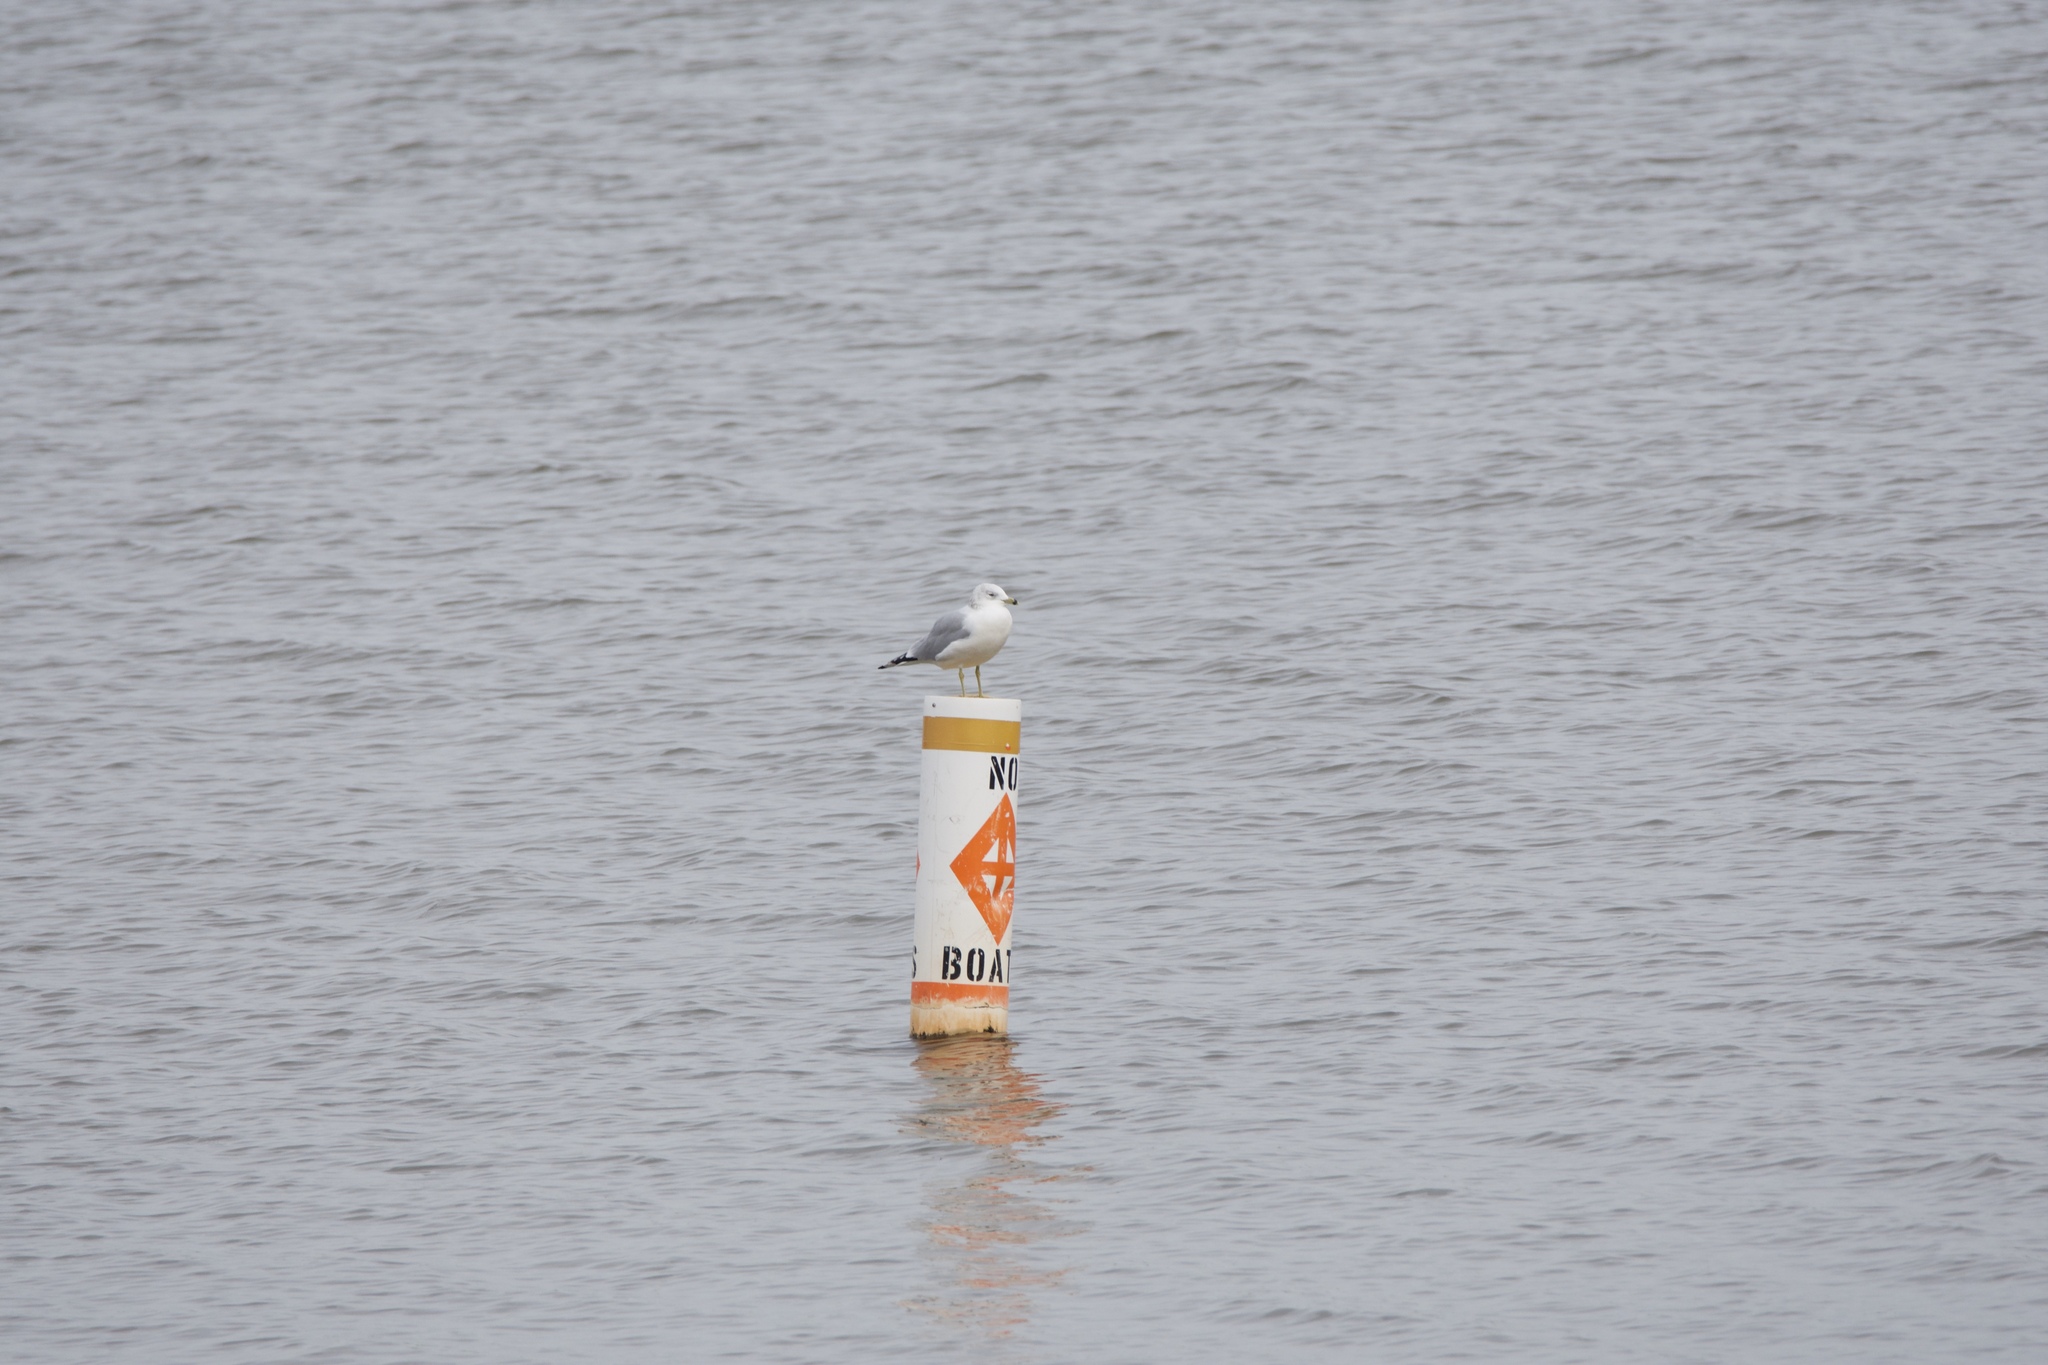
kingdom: Animalia
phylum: Chordata
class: Aves
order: Charadriiformes
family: Laridae
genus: Larus
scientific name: Larus delawarensis
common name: Ring-billed gull
